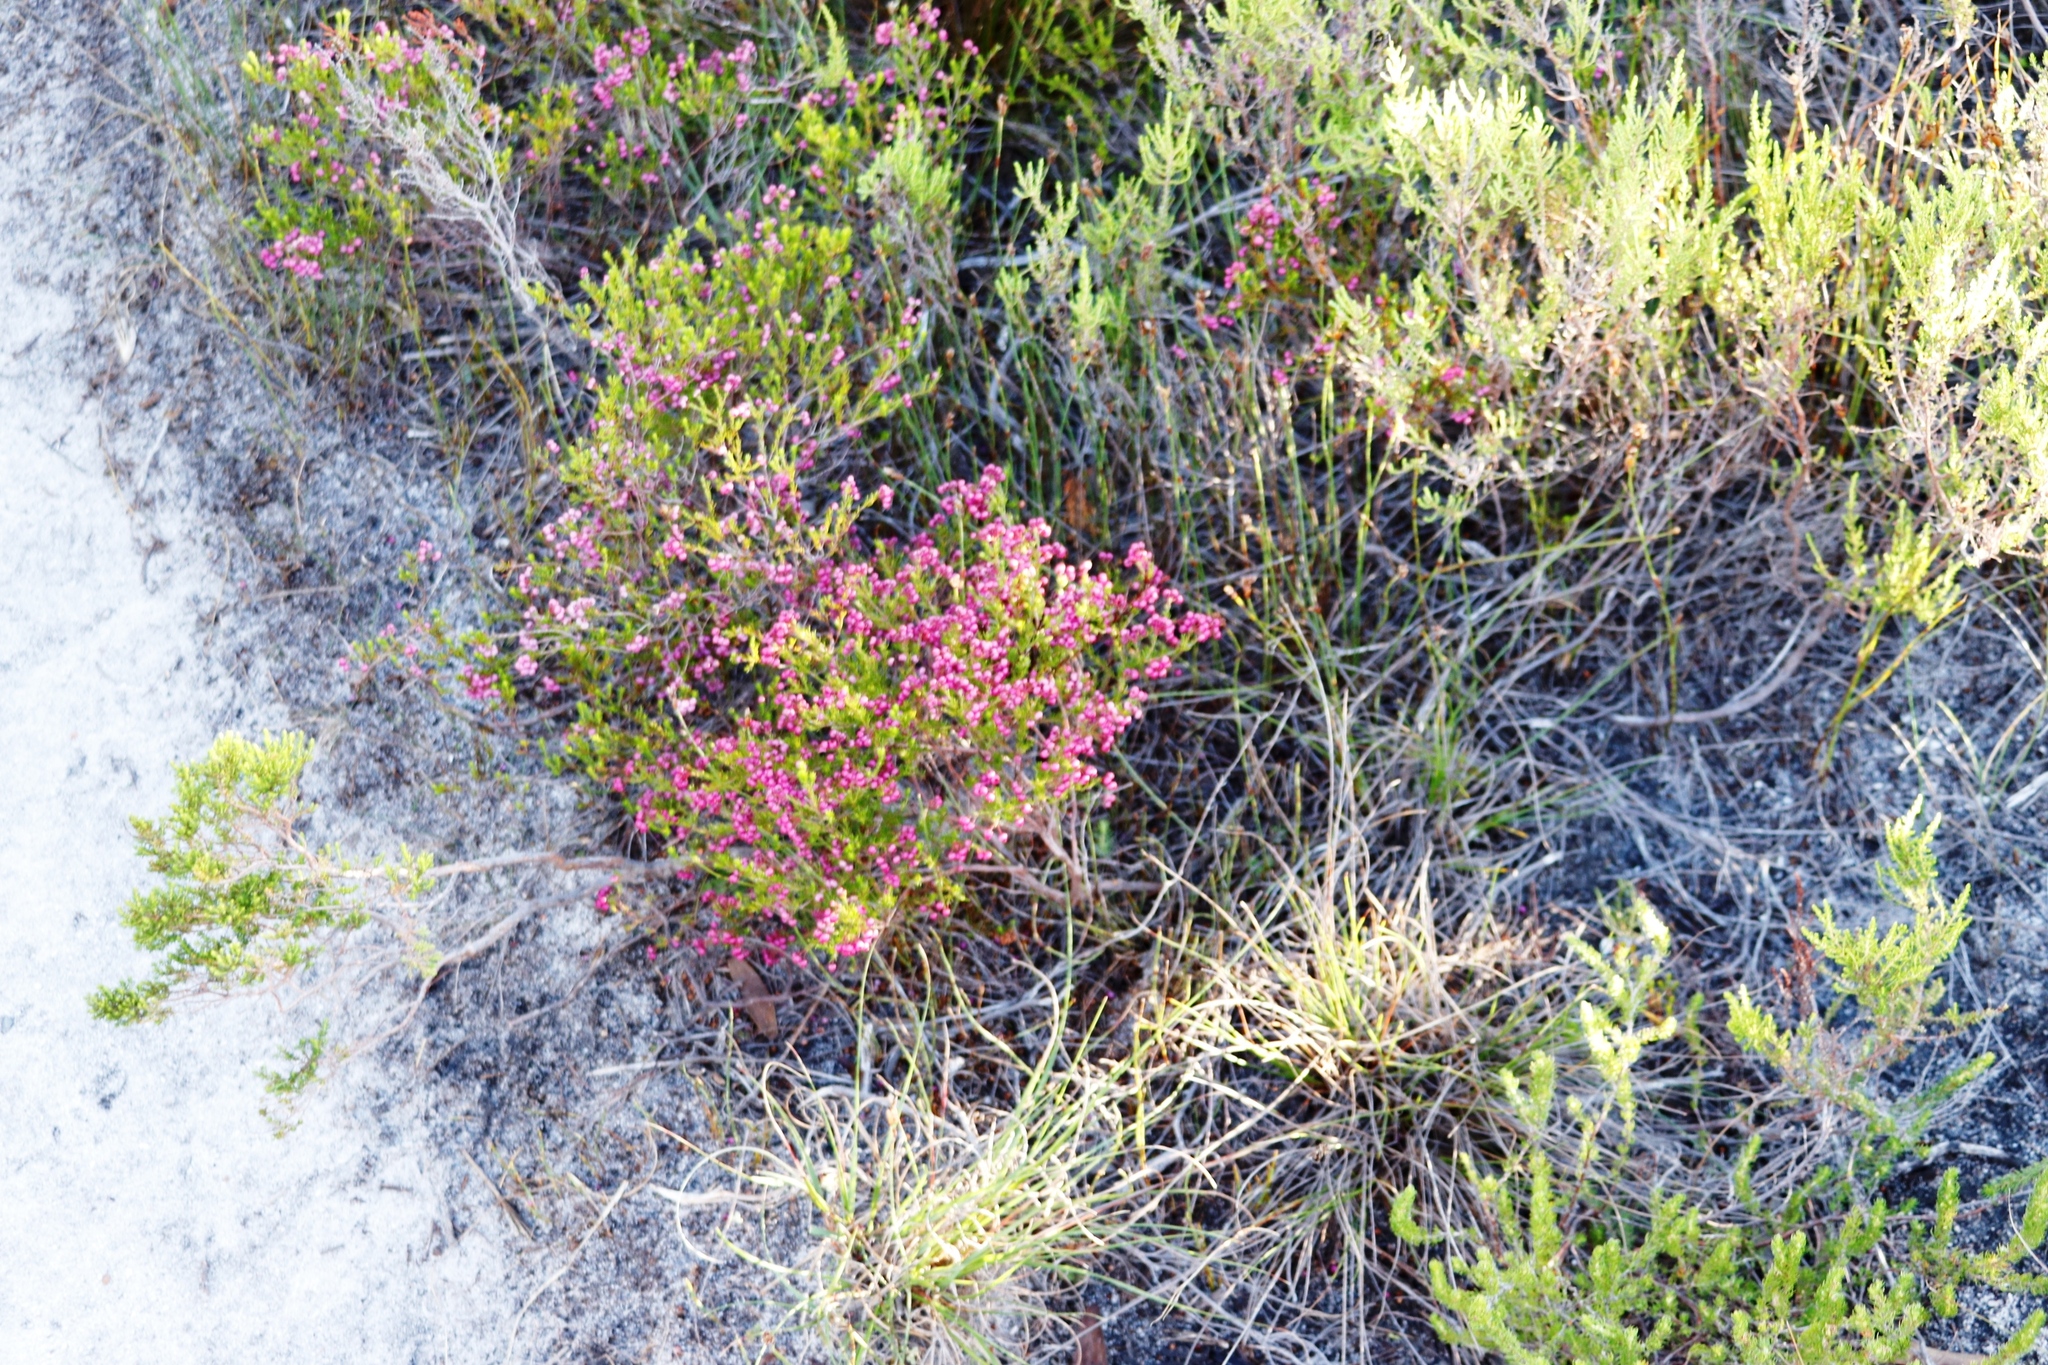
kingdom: Plantae
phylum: Tracheophyta
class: Magnoliopsida
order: Ericales
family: Ericaceae
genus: Erica
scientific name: Erica multumbellifera
